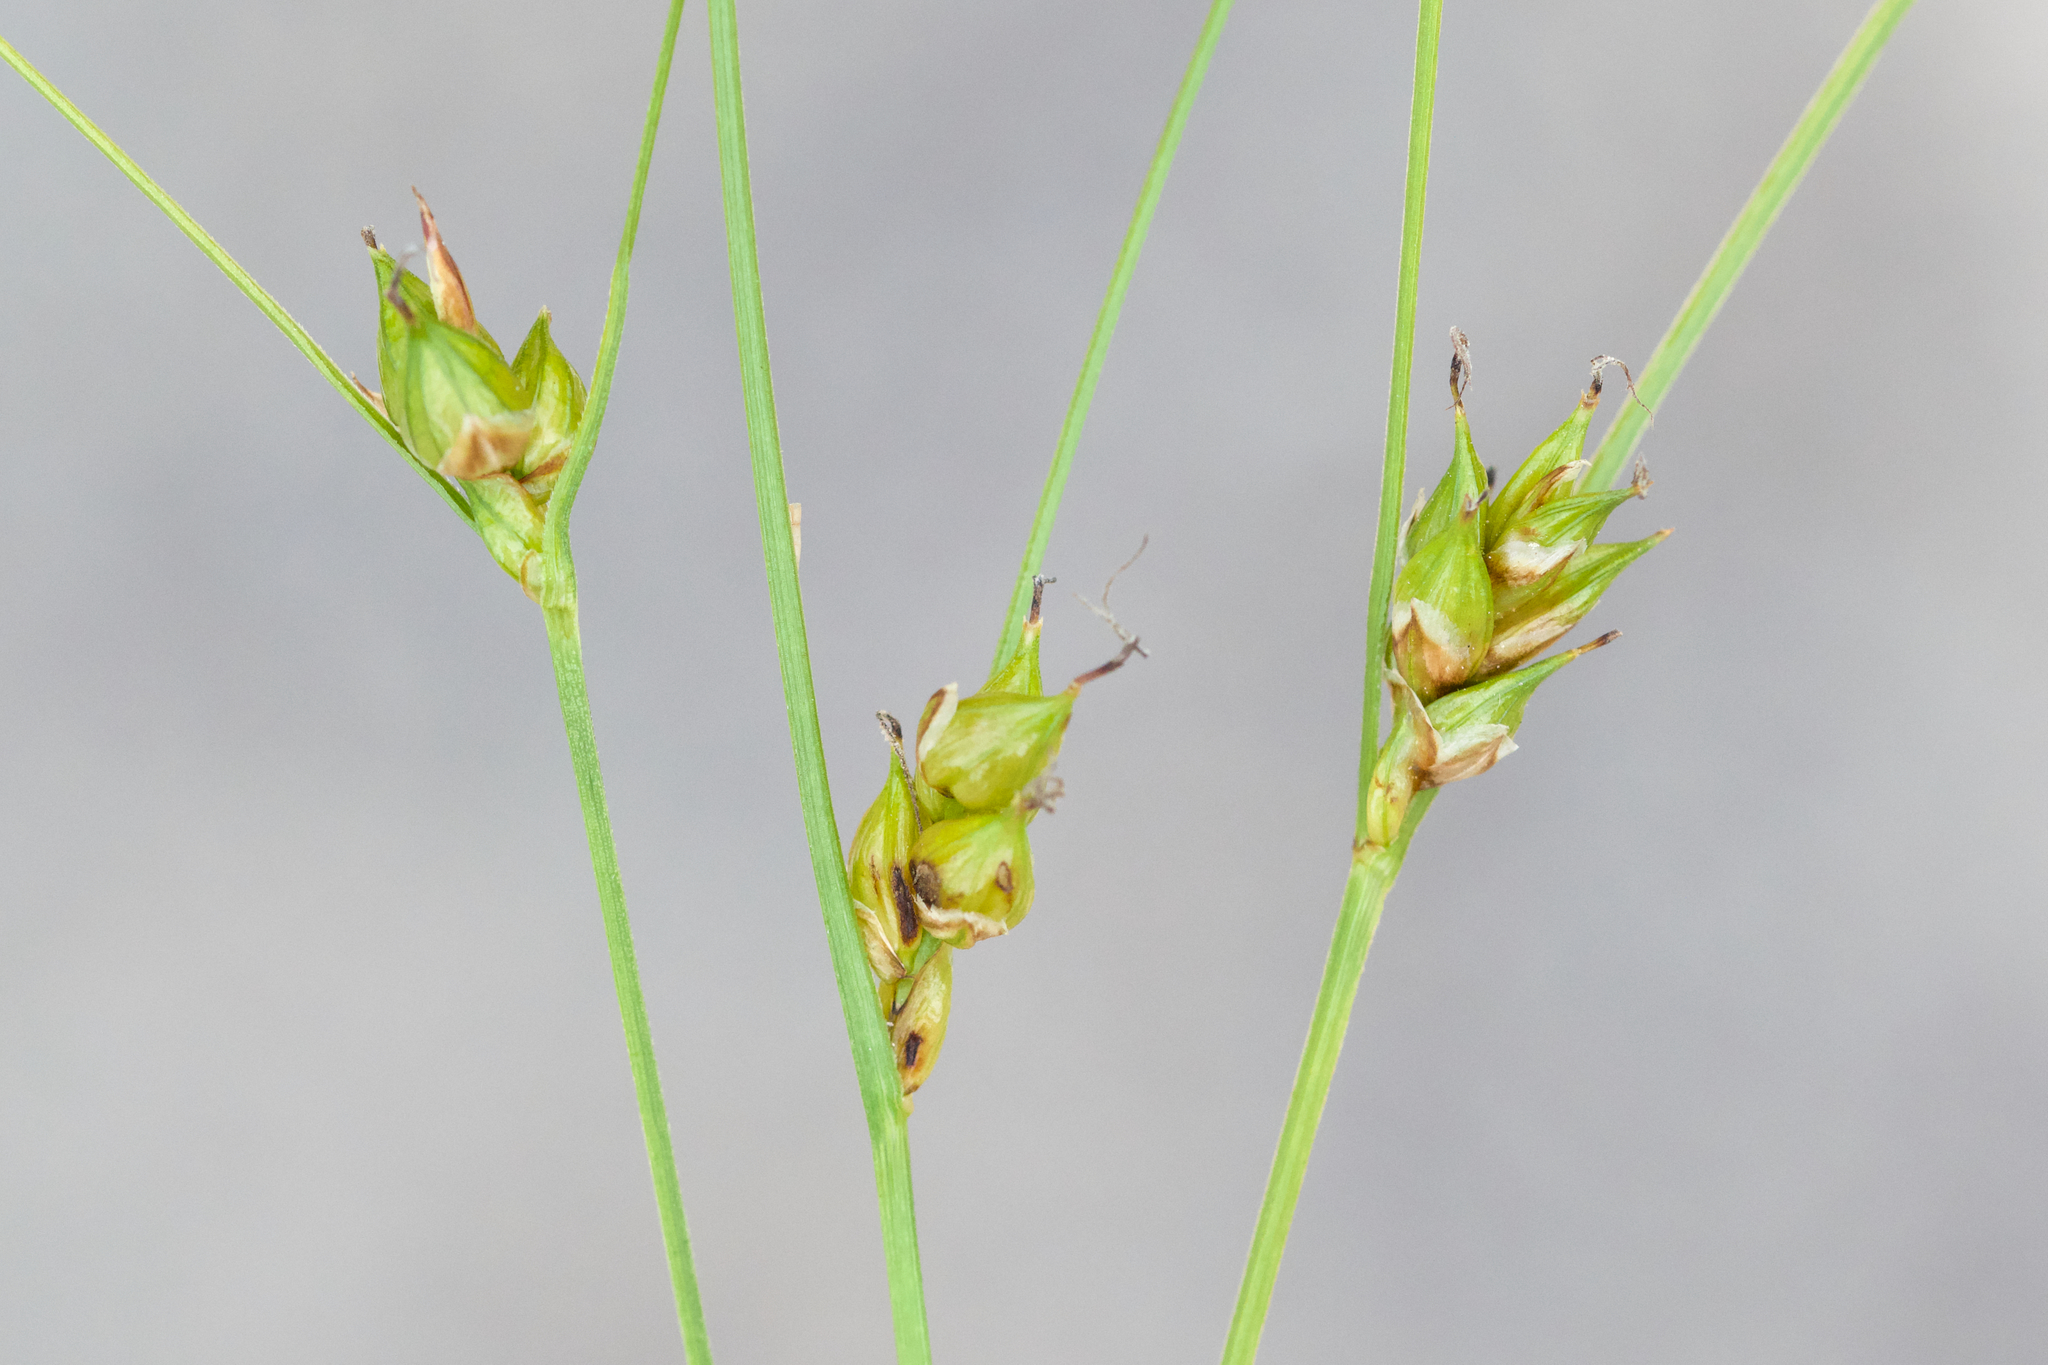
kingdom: Plantae
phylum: Tracheophyta
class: Liliopsida
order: Poales
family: Cyperaceae
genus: Carex
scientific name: Carex oligosperma
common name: Few-seed sedge
